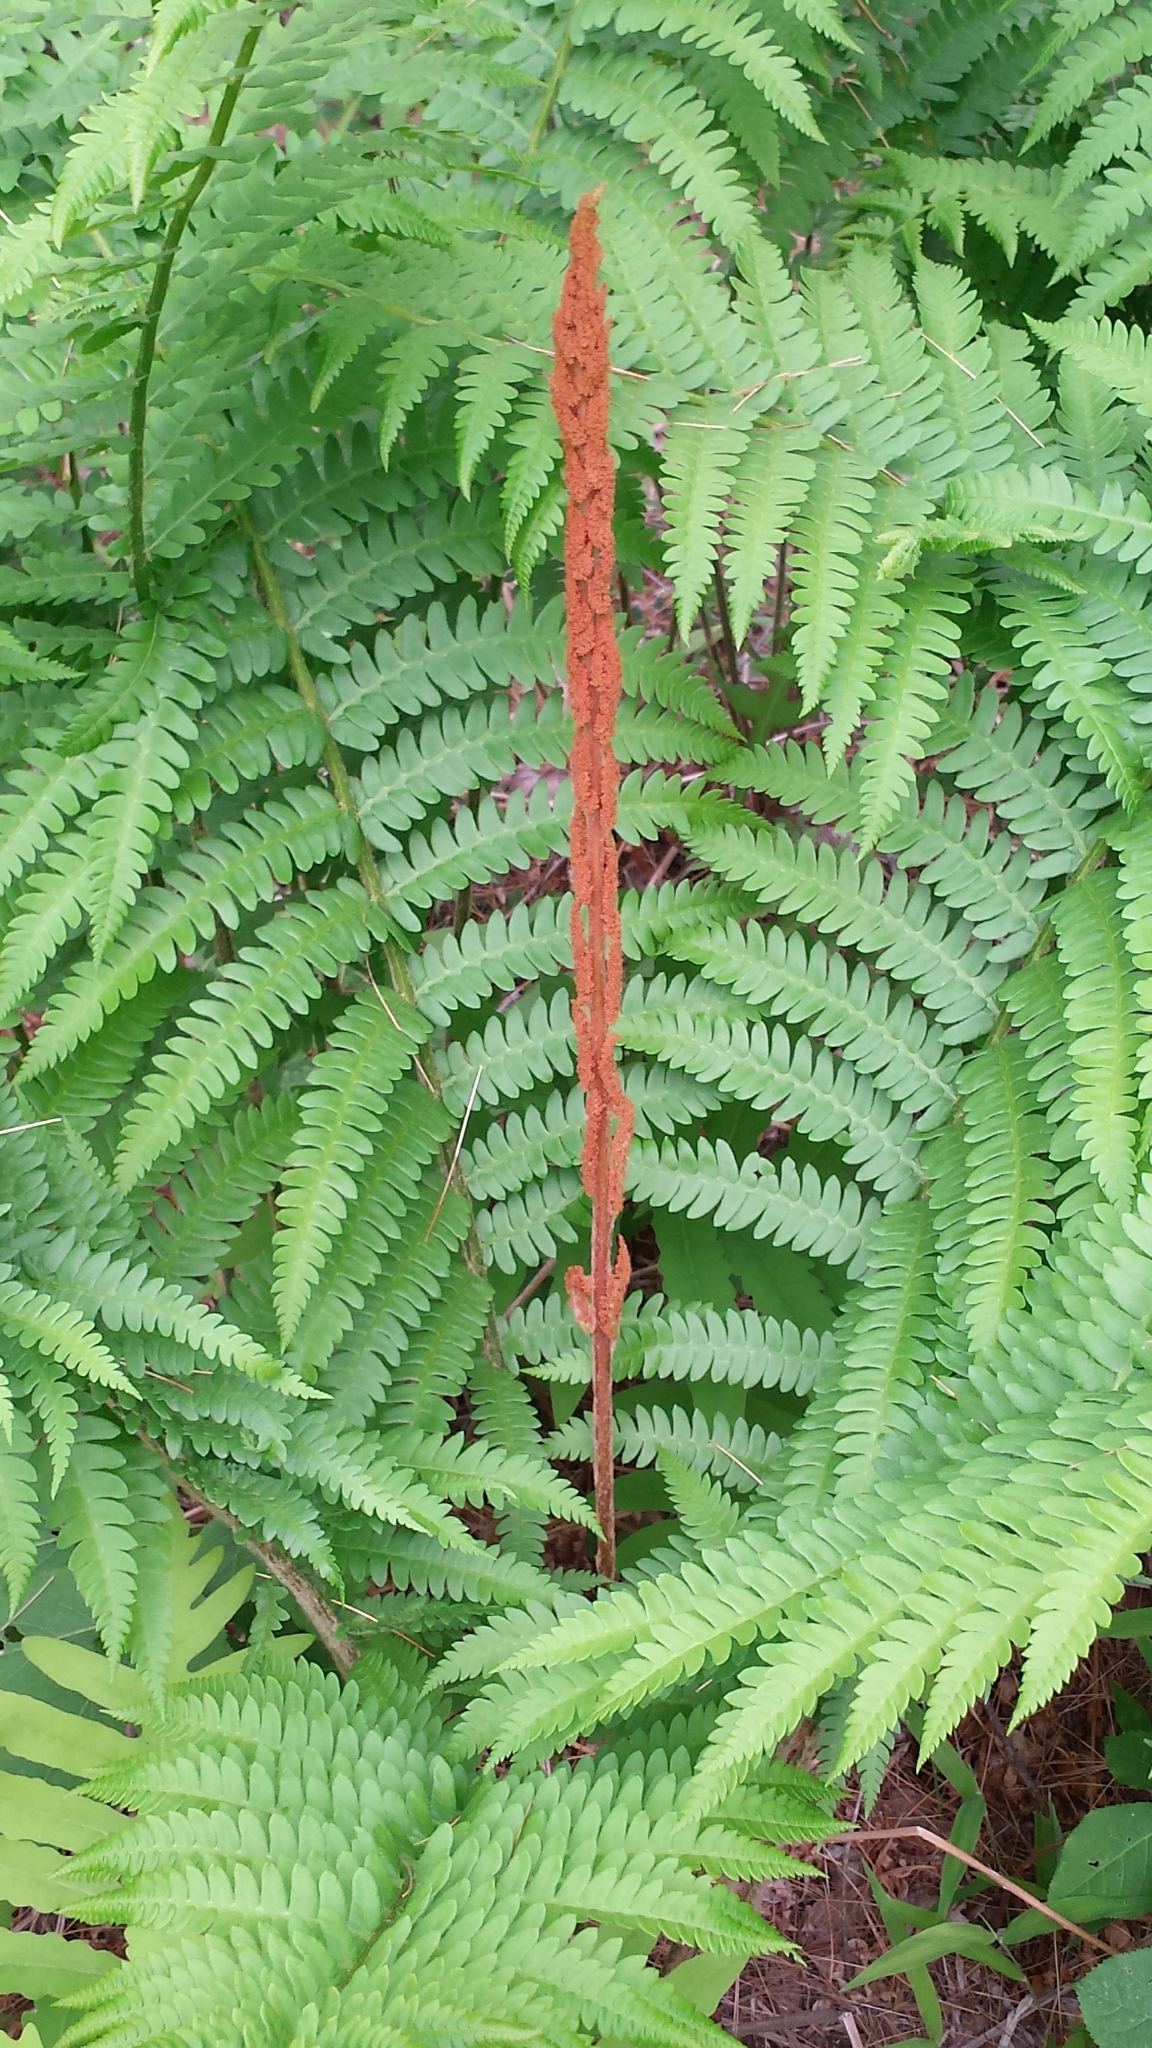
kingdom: Plantae
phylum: Tracheophyta
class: Polypodiopsida
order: Osmundales
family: Osmundaceae
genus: Osmundastrum
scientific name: Osmundastrum cinnamomeum
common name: Cinnamon fern
